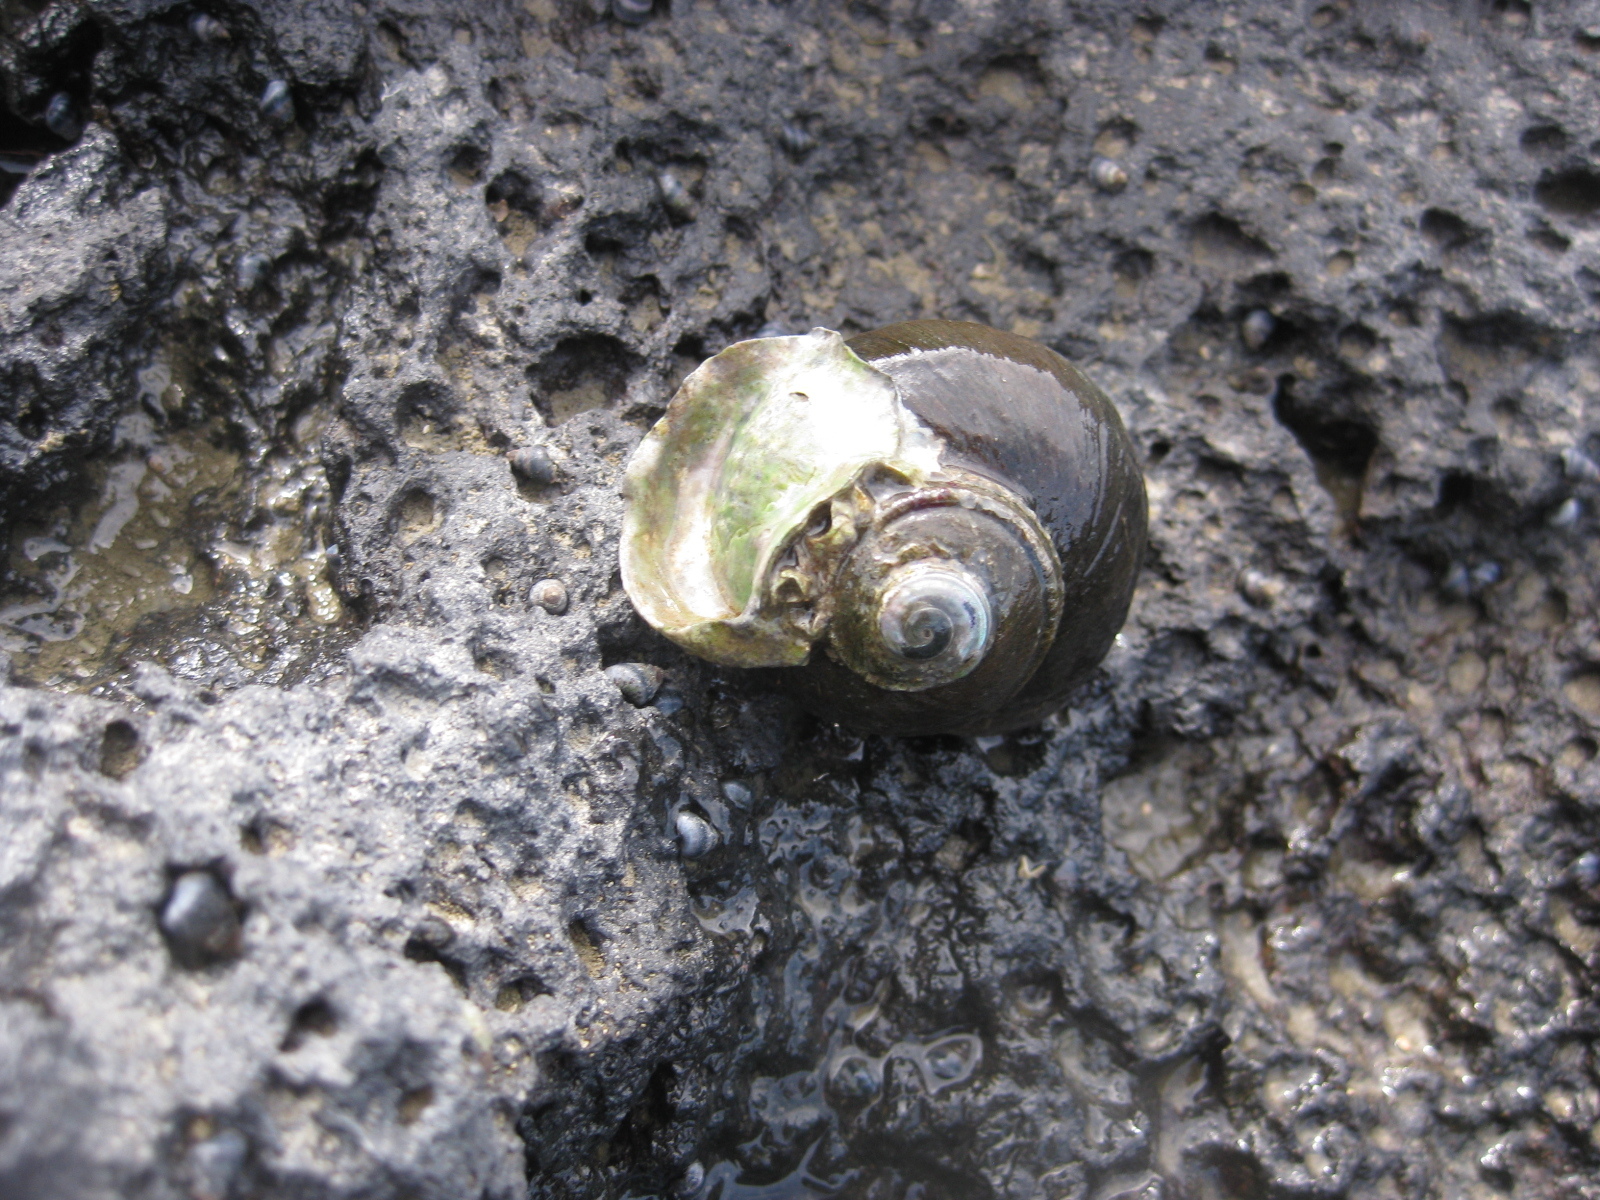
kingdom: Animalia
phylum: Mollusca
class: Gastropoda
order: Trochida
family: Turbinidae
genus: Lunella
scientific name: Lunella smaragda
